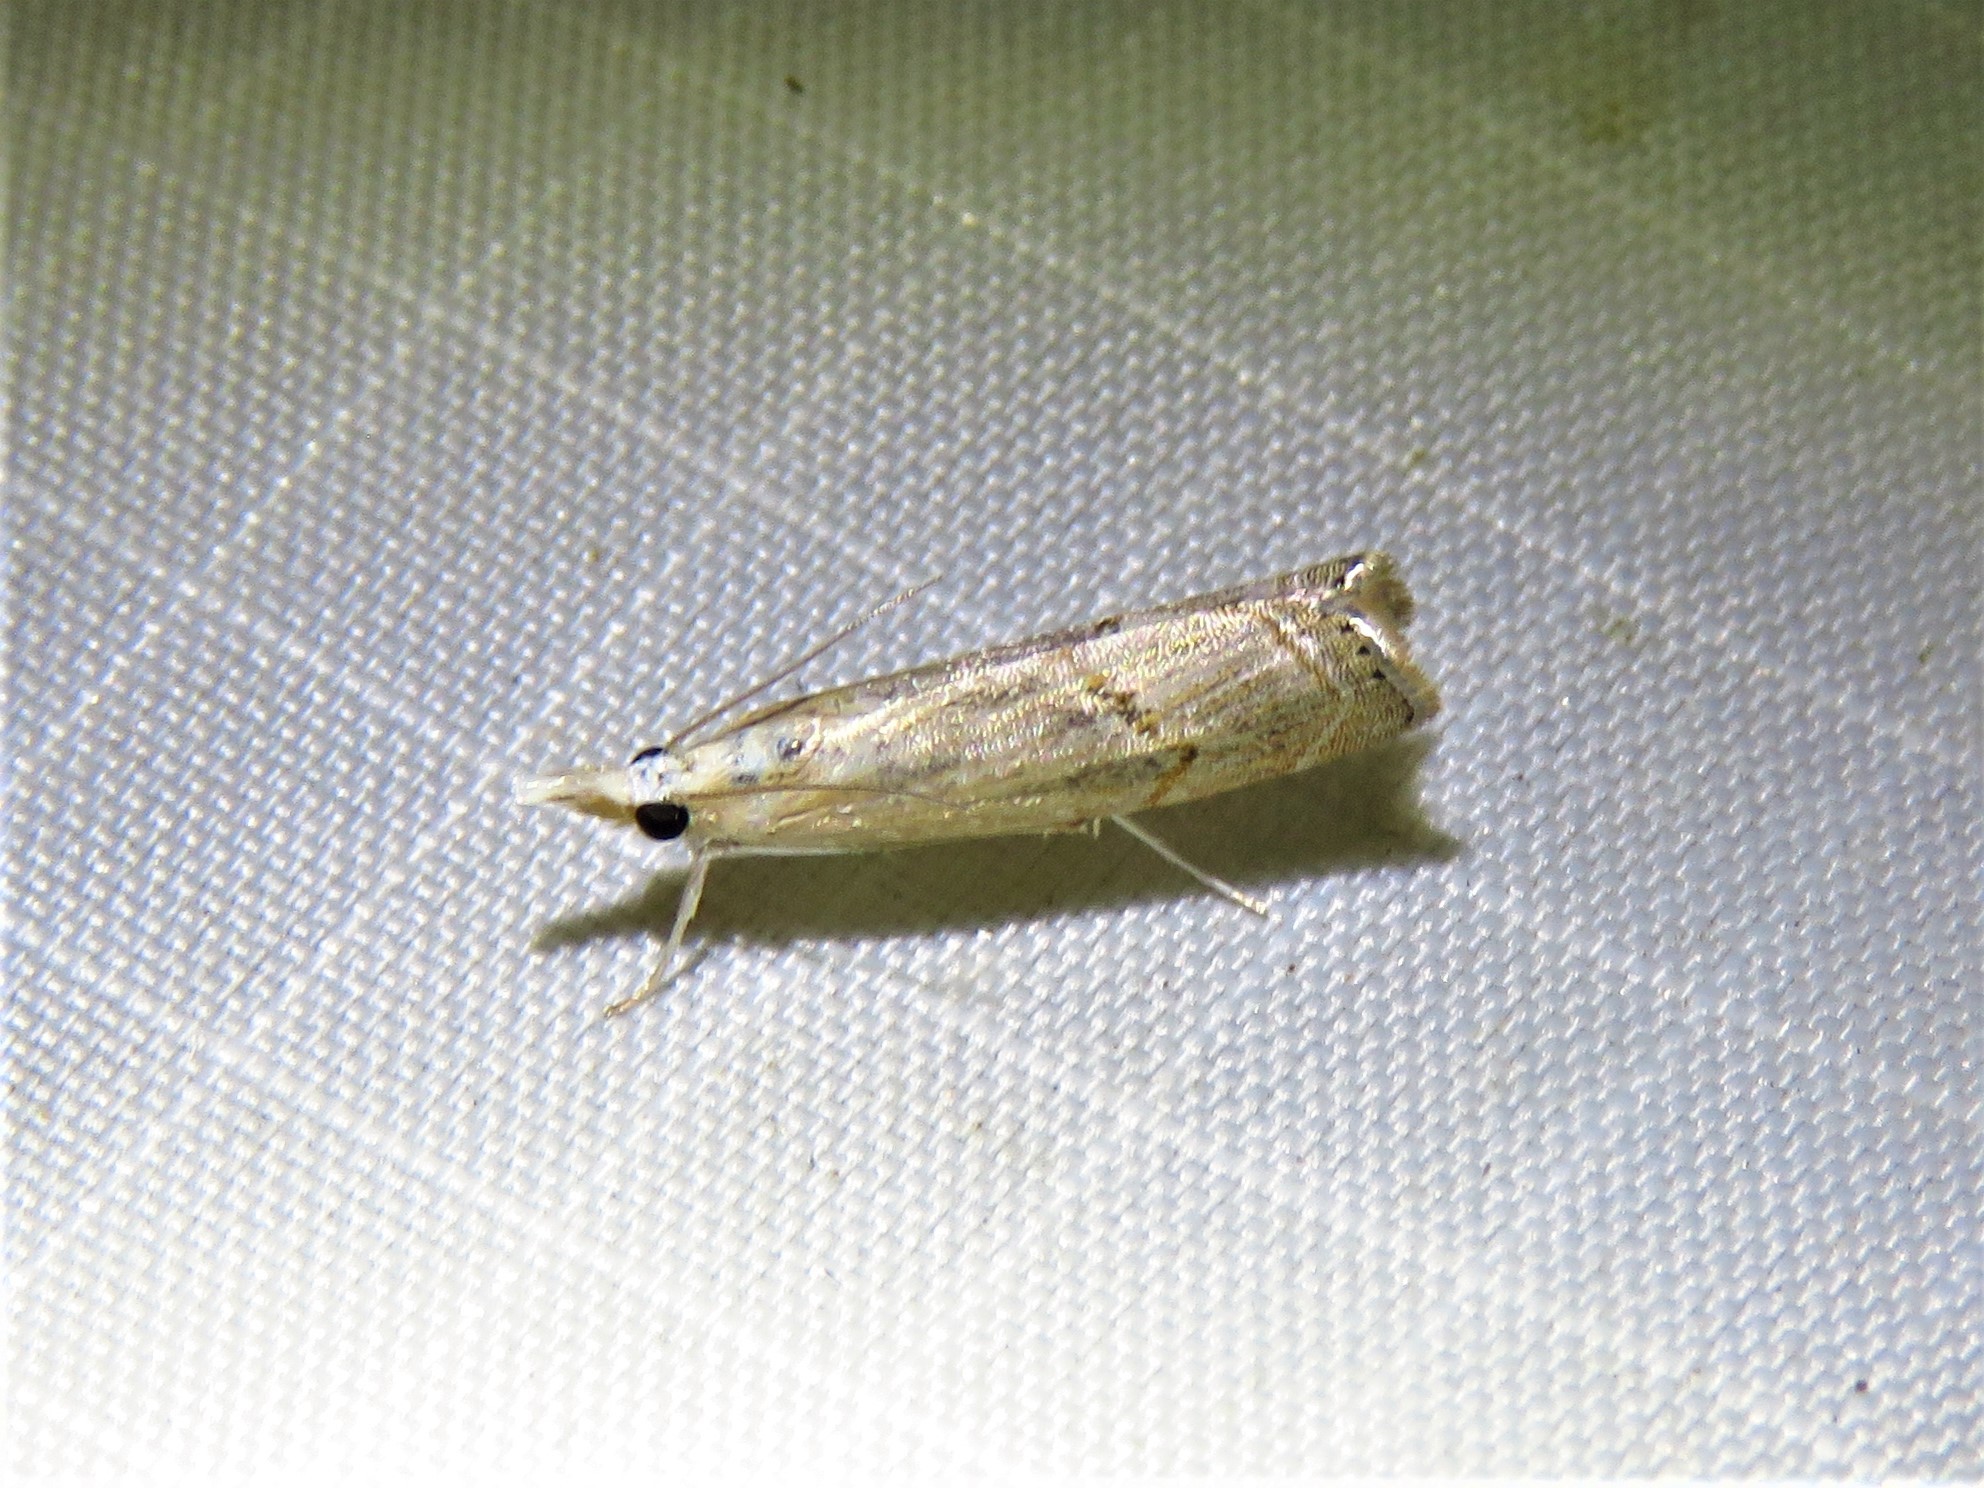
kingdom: Animalia
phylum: Arthropoda
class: Insecta
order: Lepidoptera
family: Crambidae
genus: Parapediasia
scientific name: Parapediasia decorellus
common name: Graceful grass-veneer
